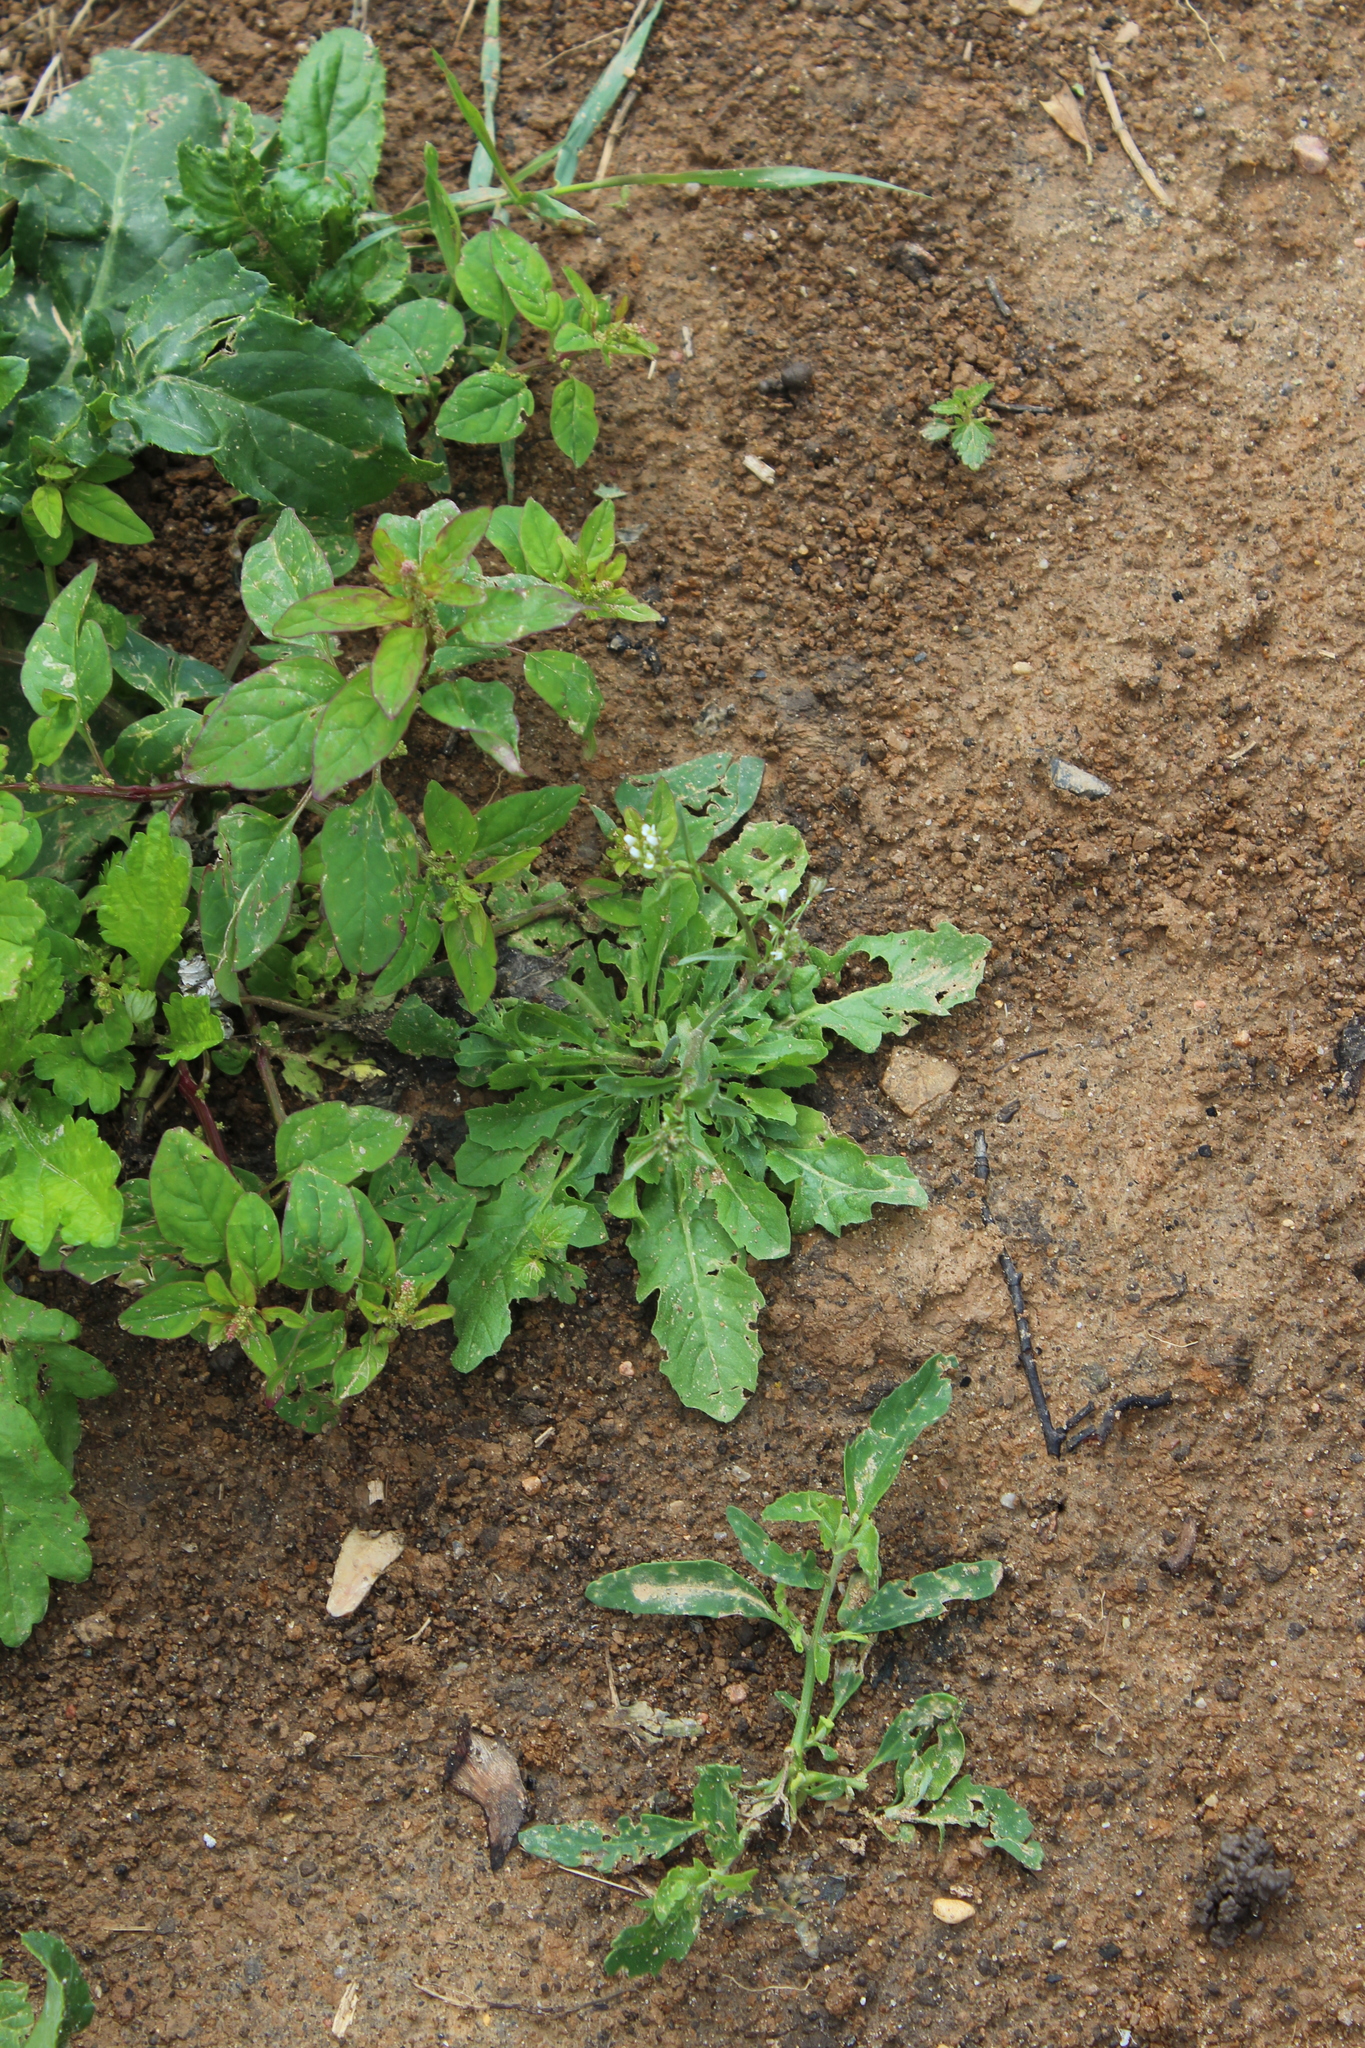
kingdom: Plantae
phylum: Tracheophyta
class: Magnoliopsida
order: Brassicales
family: Brassicaceae
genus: Capsella
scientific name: Capsella bursa-pastoris
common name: Shepherd's purse
